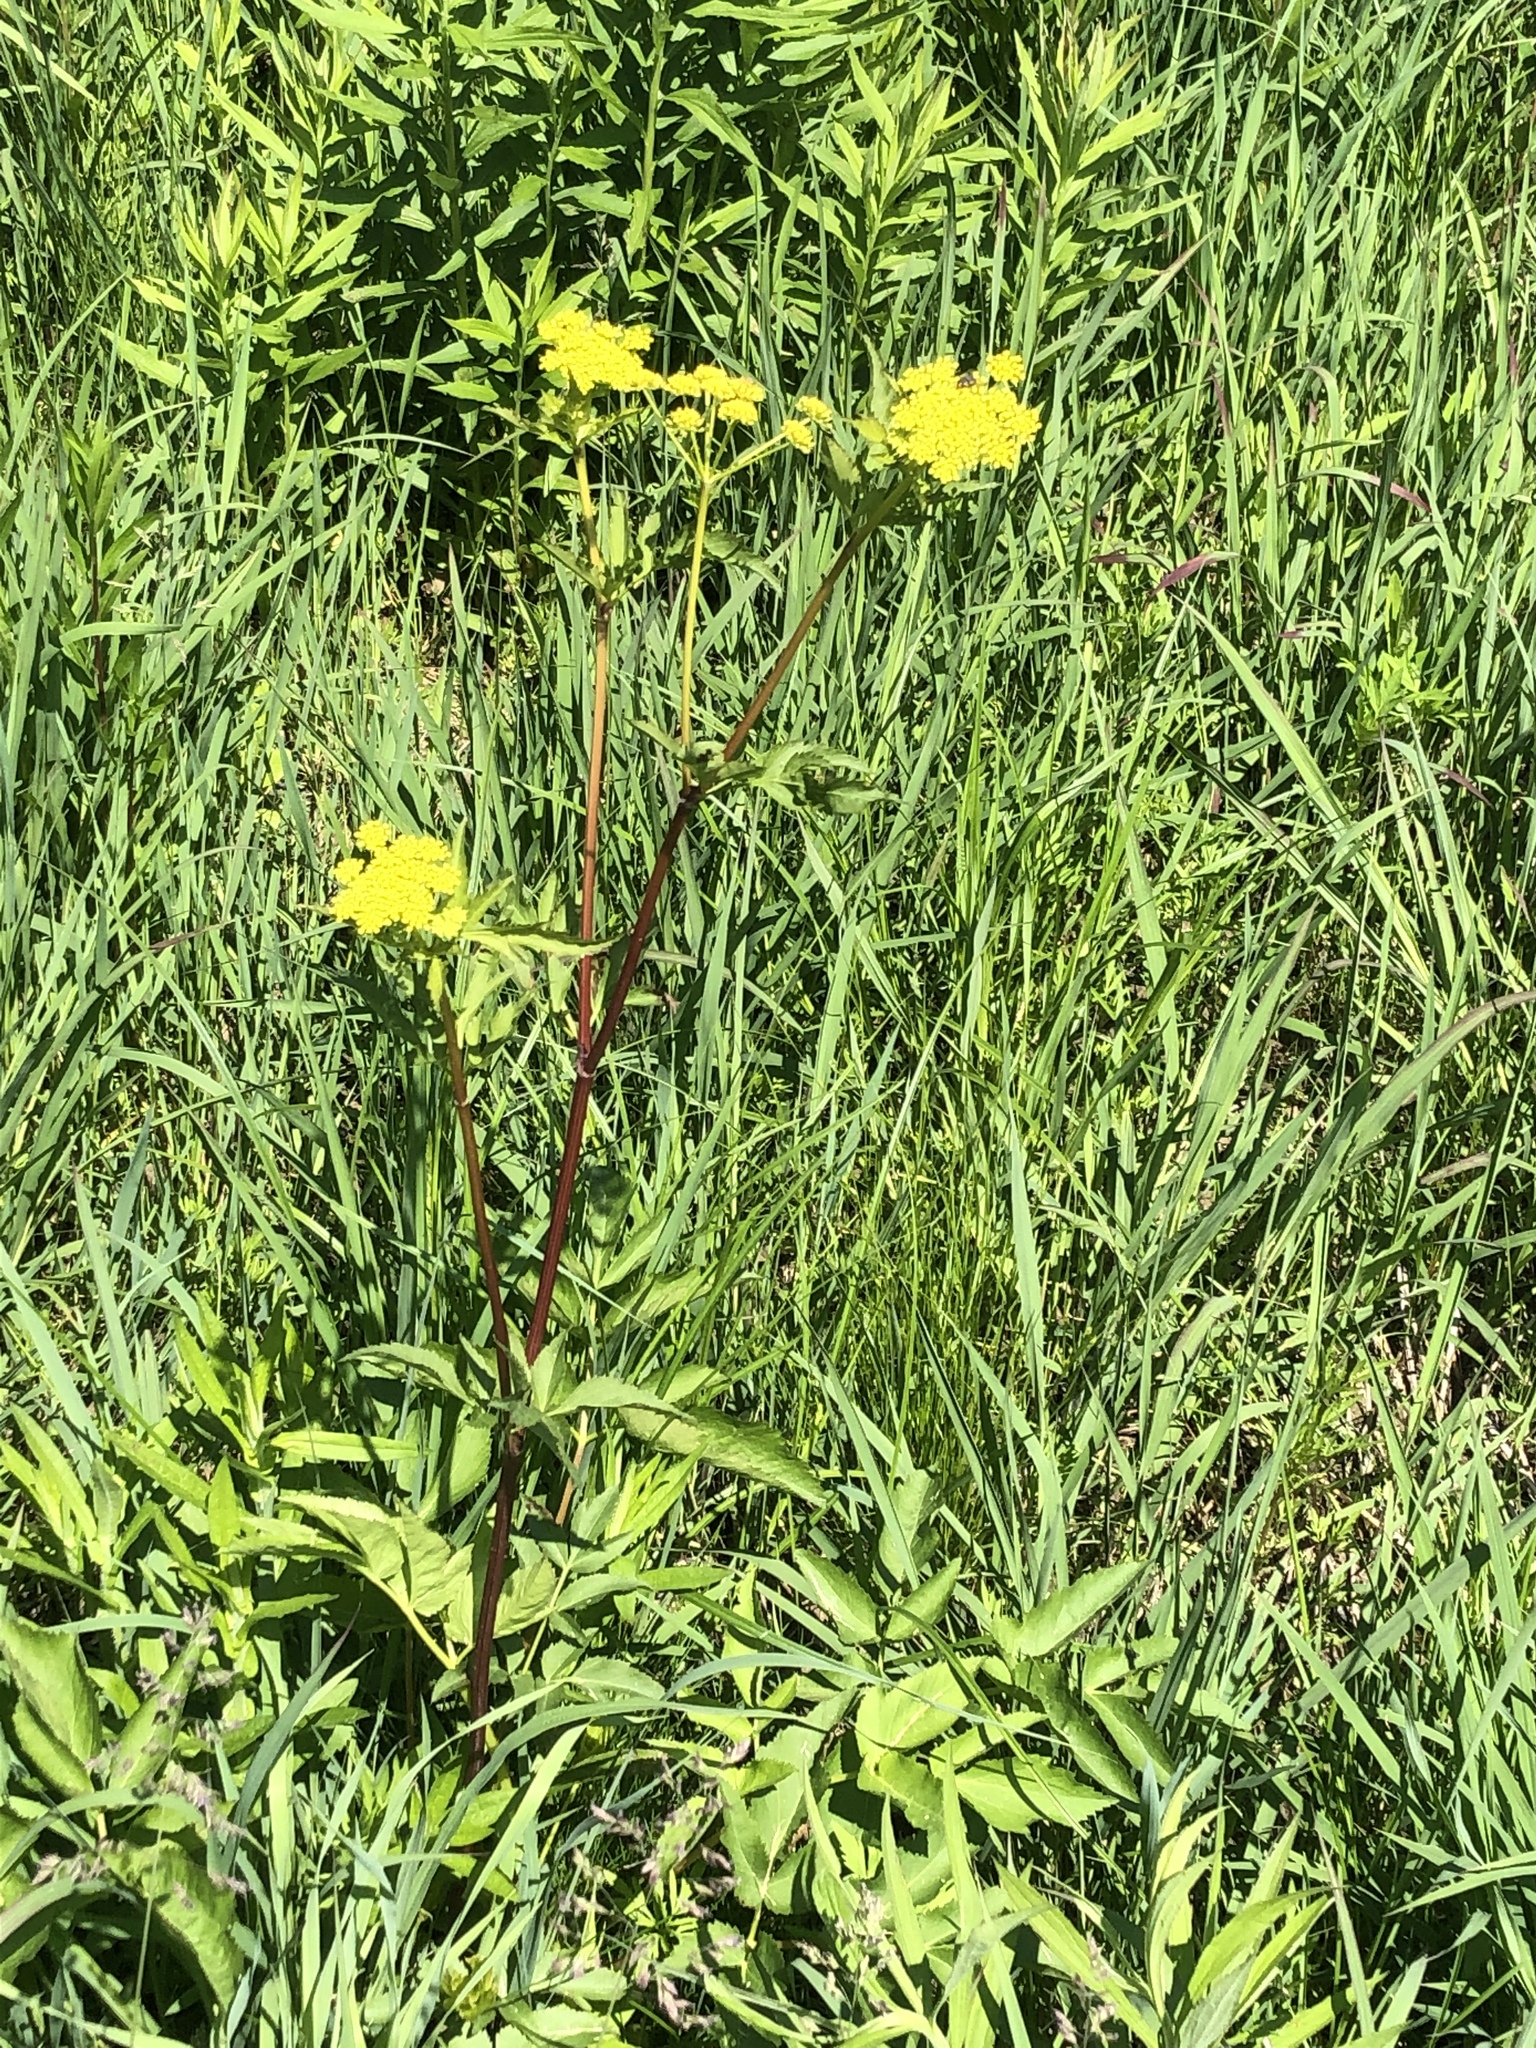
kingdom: Plantae
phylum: Tracheophyta
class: Magnoliopsida
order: Apiales
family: Apiaceae
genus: Zizia
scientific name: Zizia aurea
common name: Golden alexanders
